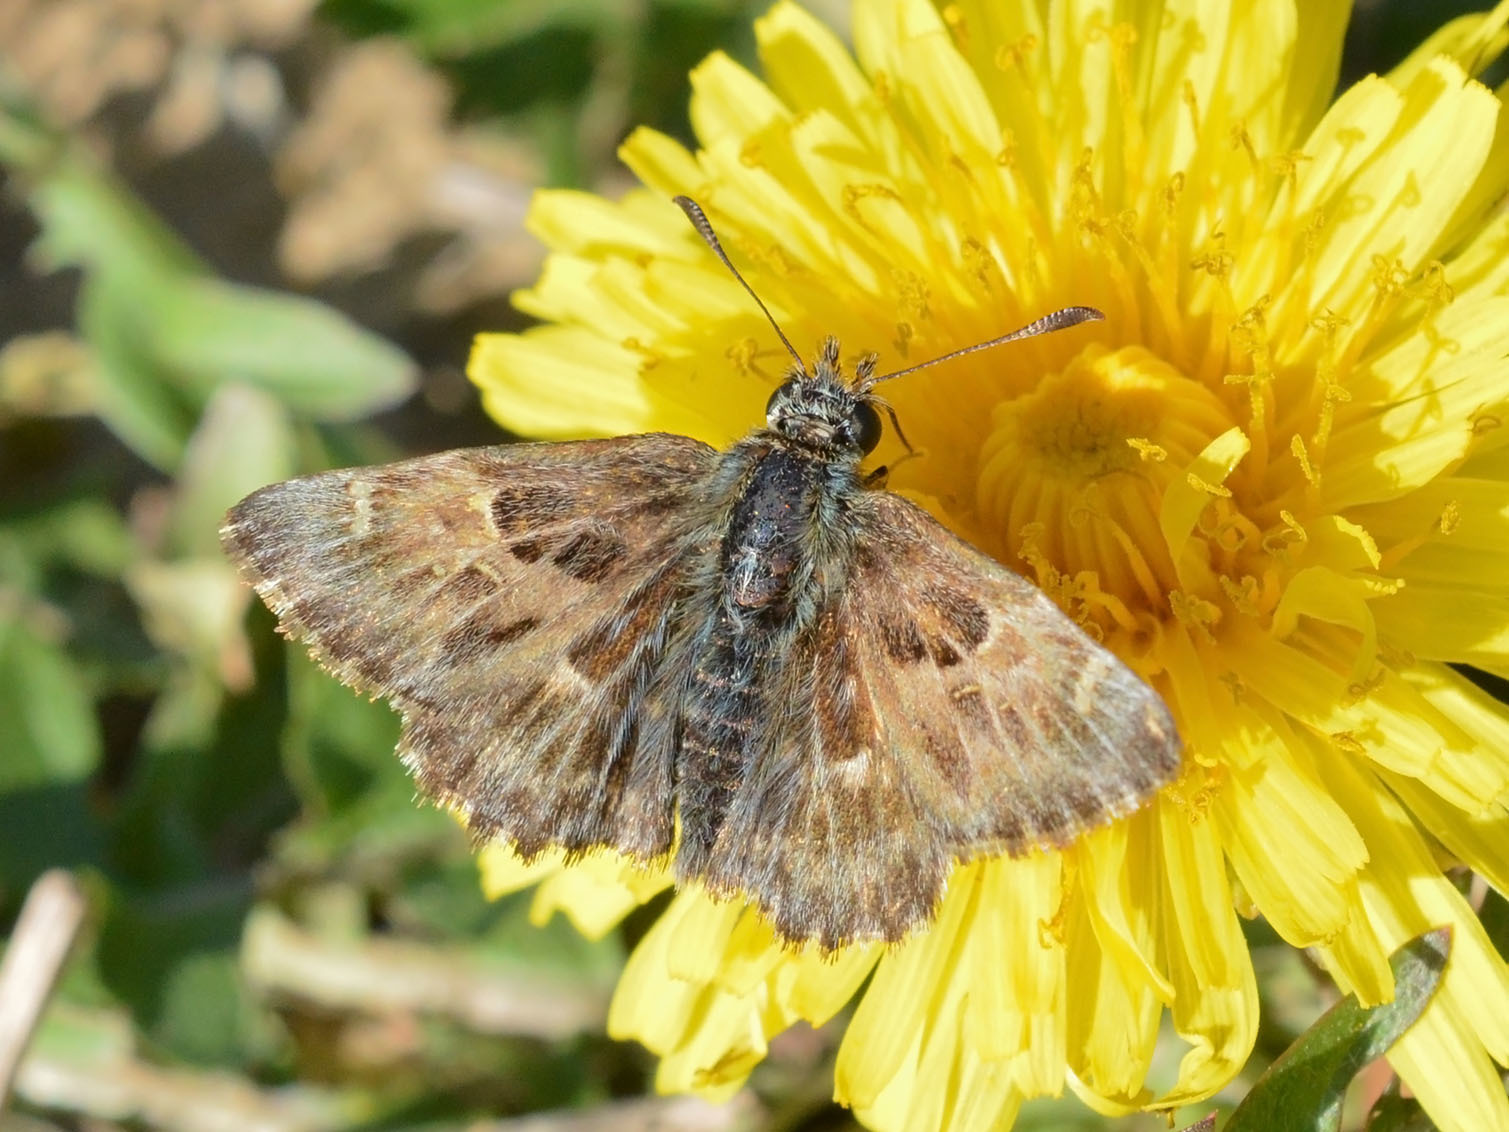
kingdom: Animalia
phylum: Arthropoda
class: Insecta
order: Lepidoptera
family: Hesperiidae
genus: Carcharodus
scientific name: Carcharodus alceae
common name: Mallow skipper
